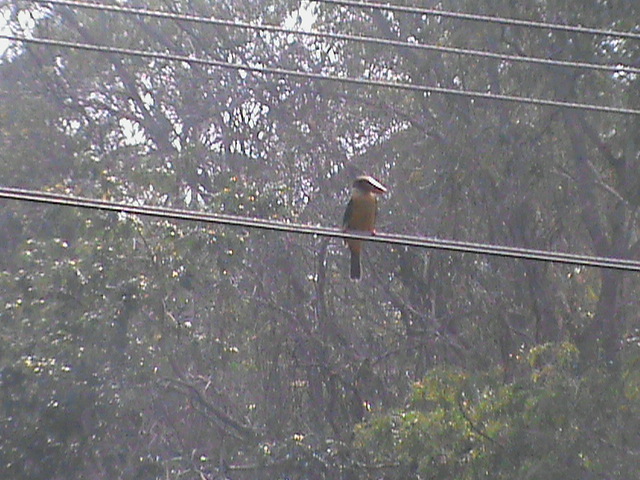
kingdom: Animalia
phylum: Chordata
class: Aves
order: Coraciiformes
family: Alcedinidae
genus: Pelargopsis
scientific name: Pelargopsis capensis
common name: Stork-billed kingfisher
